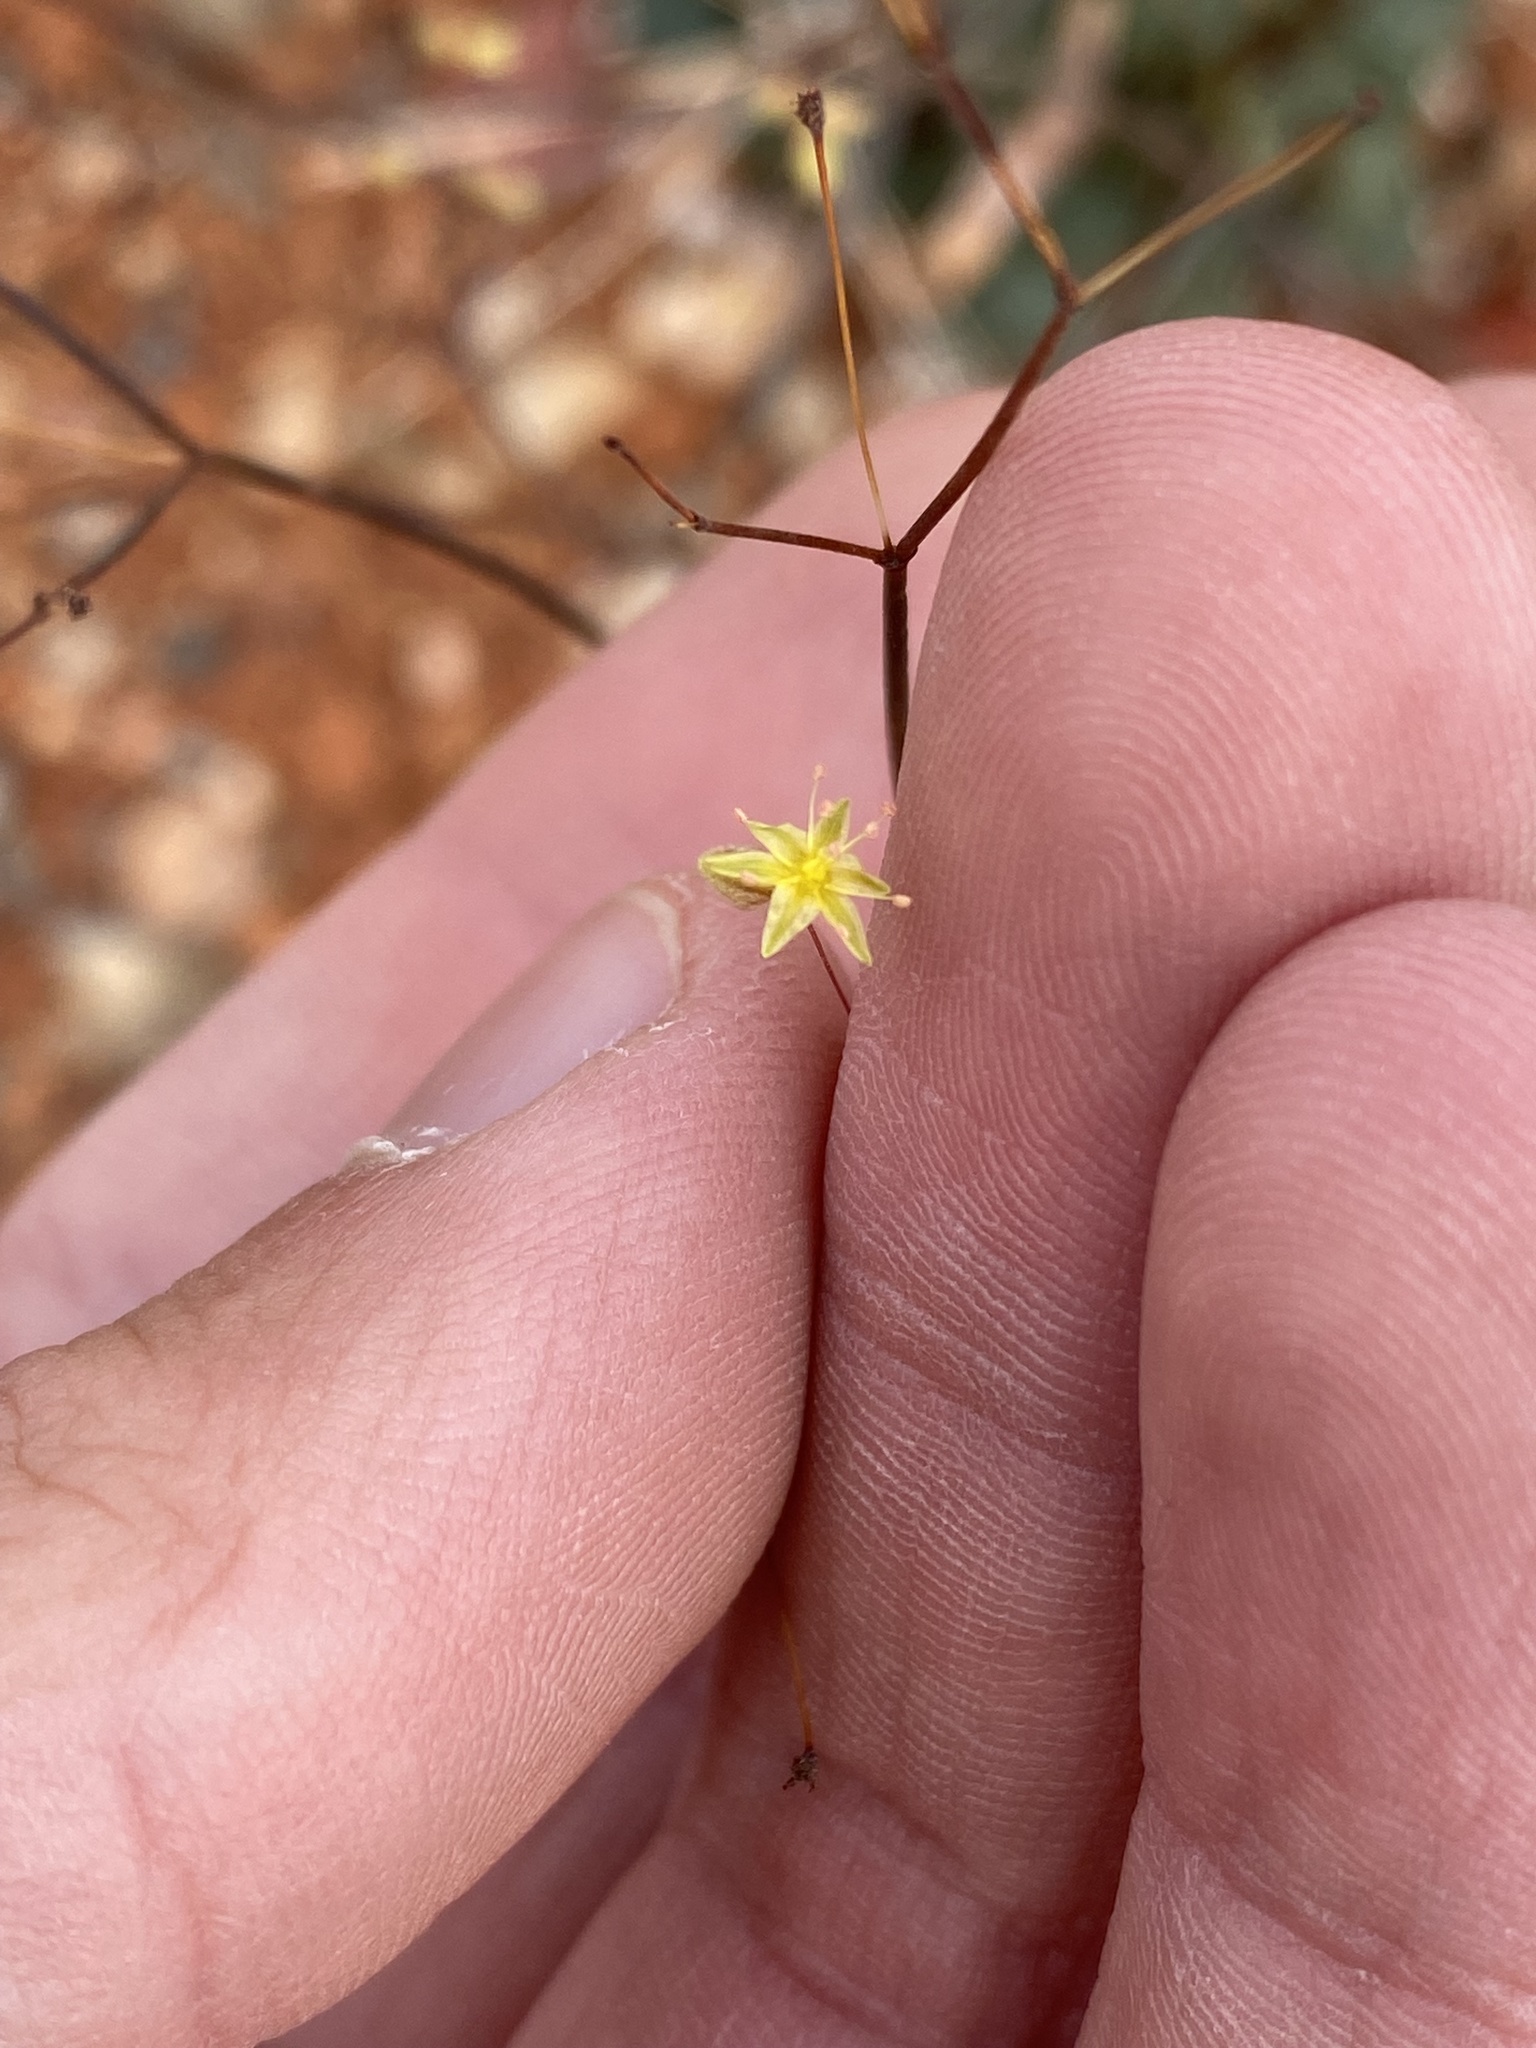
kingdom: Plantae
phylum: Tracheophyta
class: Magnoliopsida
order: Caryophyllales
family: Polygonaceae
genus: Eriogonum
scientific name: Eriogonum inflatum
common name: Desert trumpet
